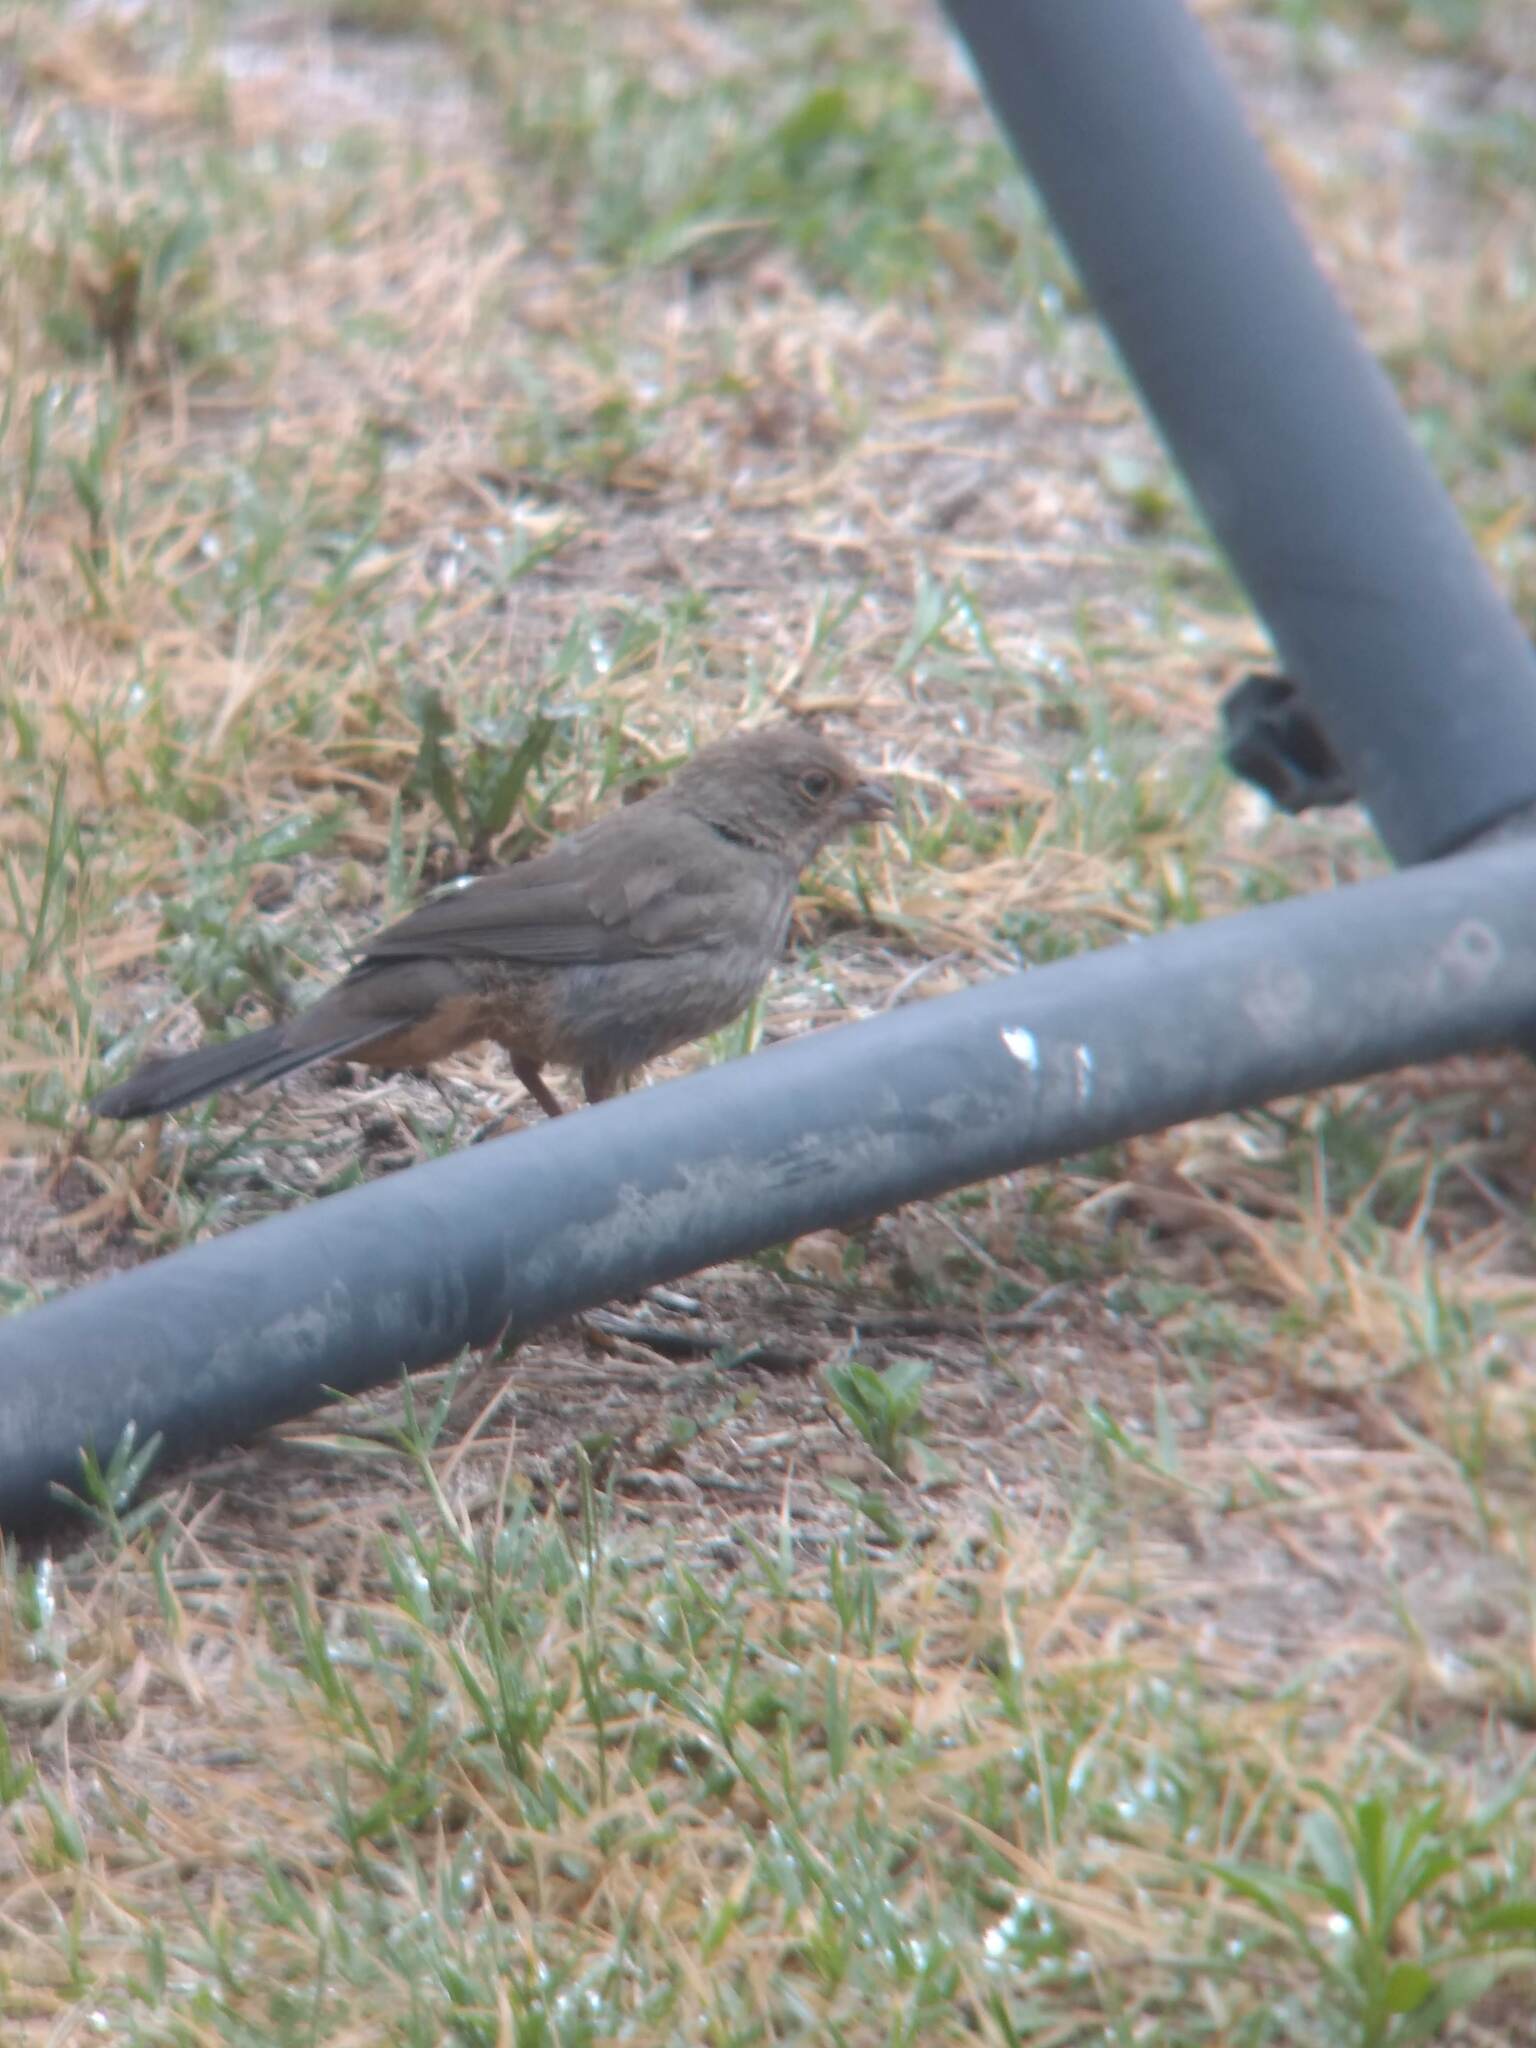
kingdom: Animalia
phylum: Chordata
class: Aves
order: Passeriformes
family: Passerellidae
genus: Melozone
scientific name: Melozone crissalis
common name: California towhee
